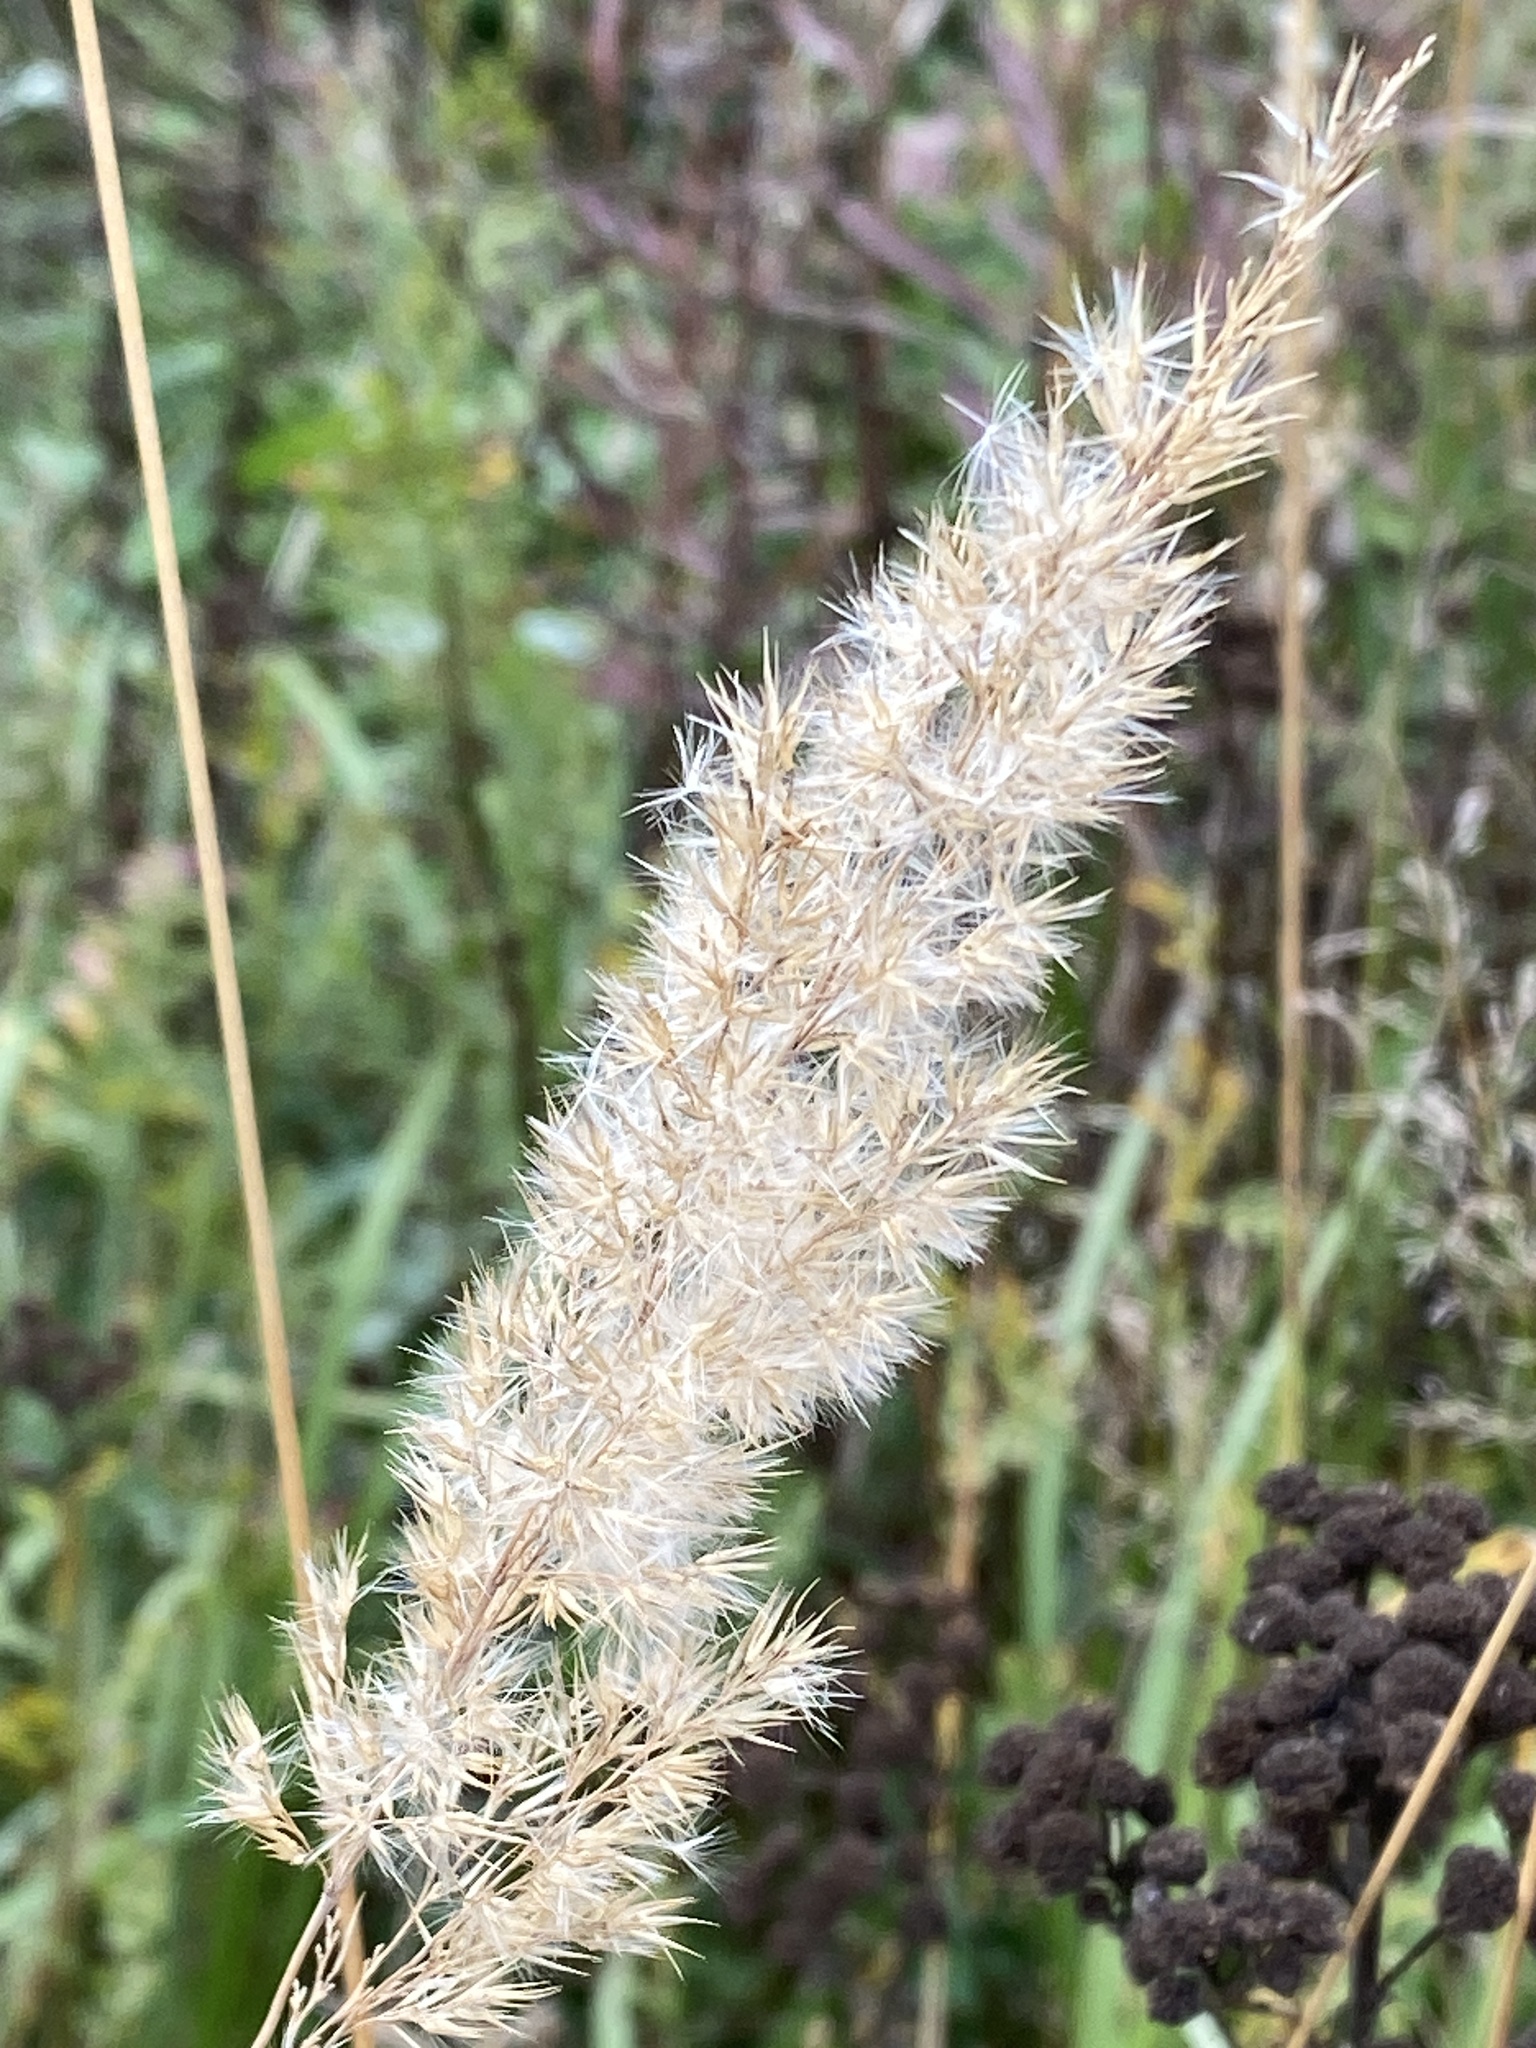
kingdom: Plantae
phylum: Tracheophyta
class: Liliopsida
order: Poales
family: Poaceae
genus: Calamagrostis
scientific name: Calamagrostis epigejos
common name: Wood small-reed
